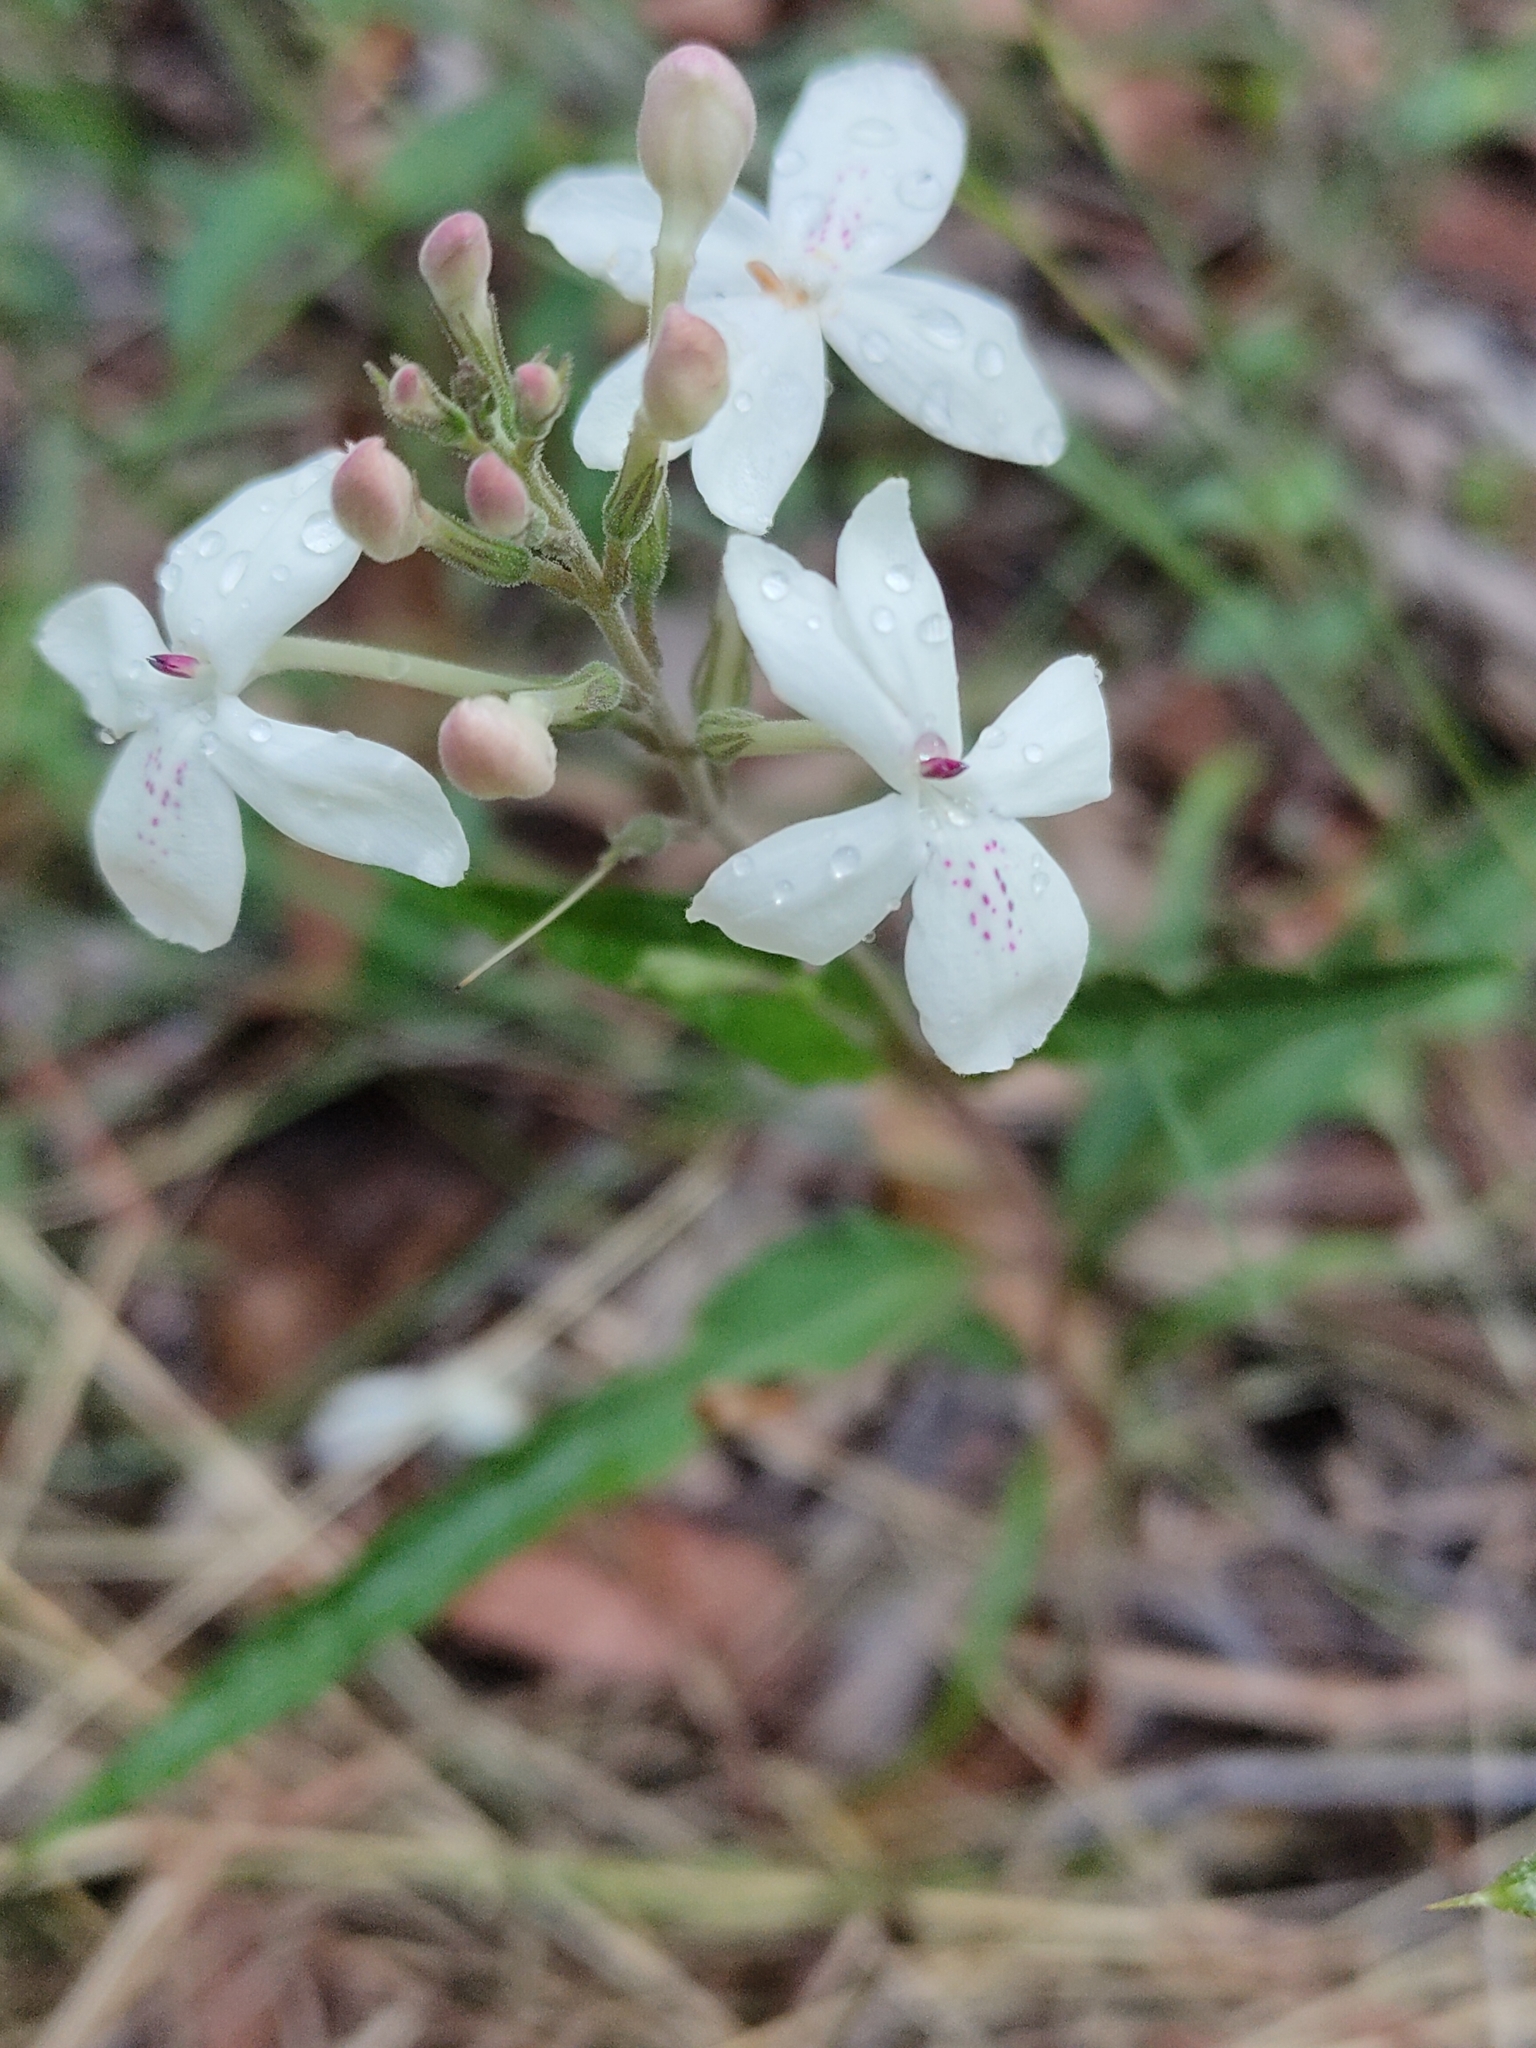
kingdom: Plantae
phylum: Tracheophyta
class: Magnoliopsida
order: Lamiales
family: Acanthaceae
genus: Pseuderanthemum
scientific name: Pseuderanthemum variabile
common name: Night and afternoon
